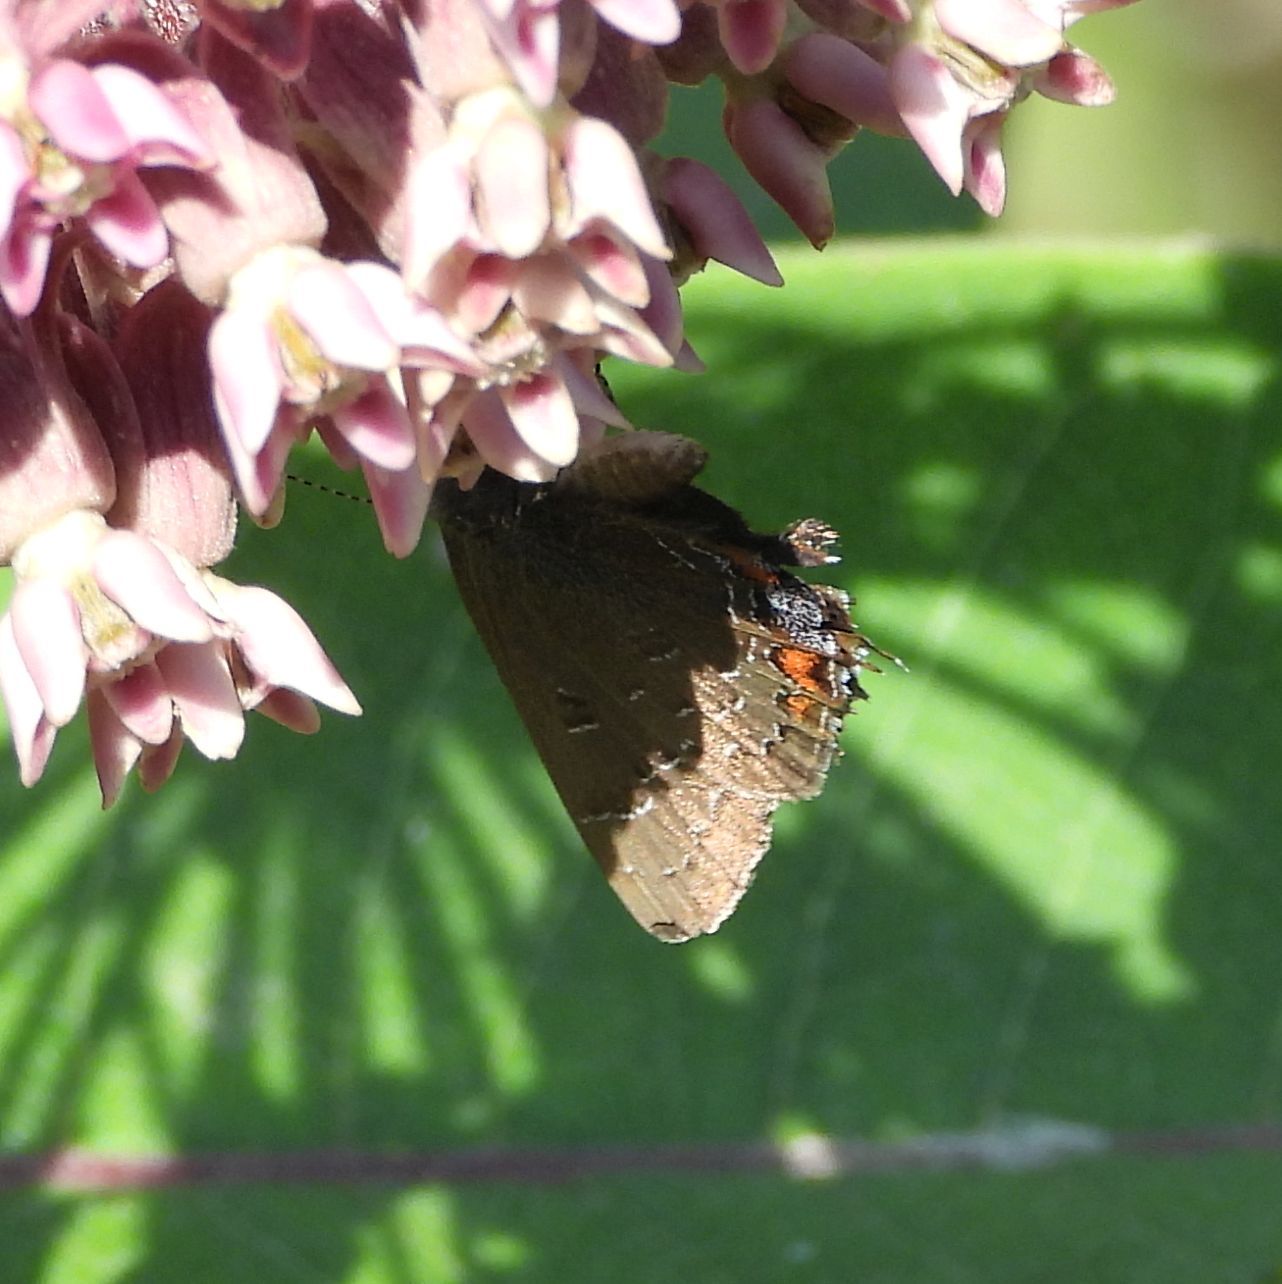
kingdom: Animalia
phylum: Arthropoda
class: Insecta
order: Lepidoptera
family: Lycaenidae
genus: Satyrium
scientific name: Satyrium calanus
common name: Banded hairstreak
